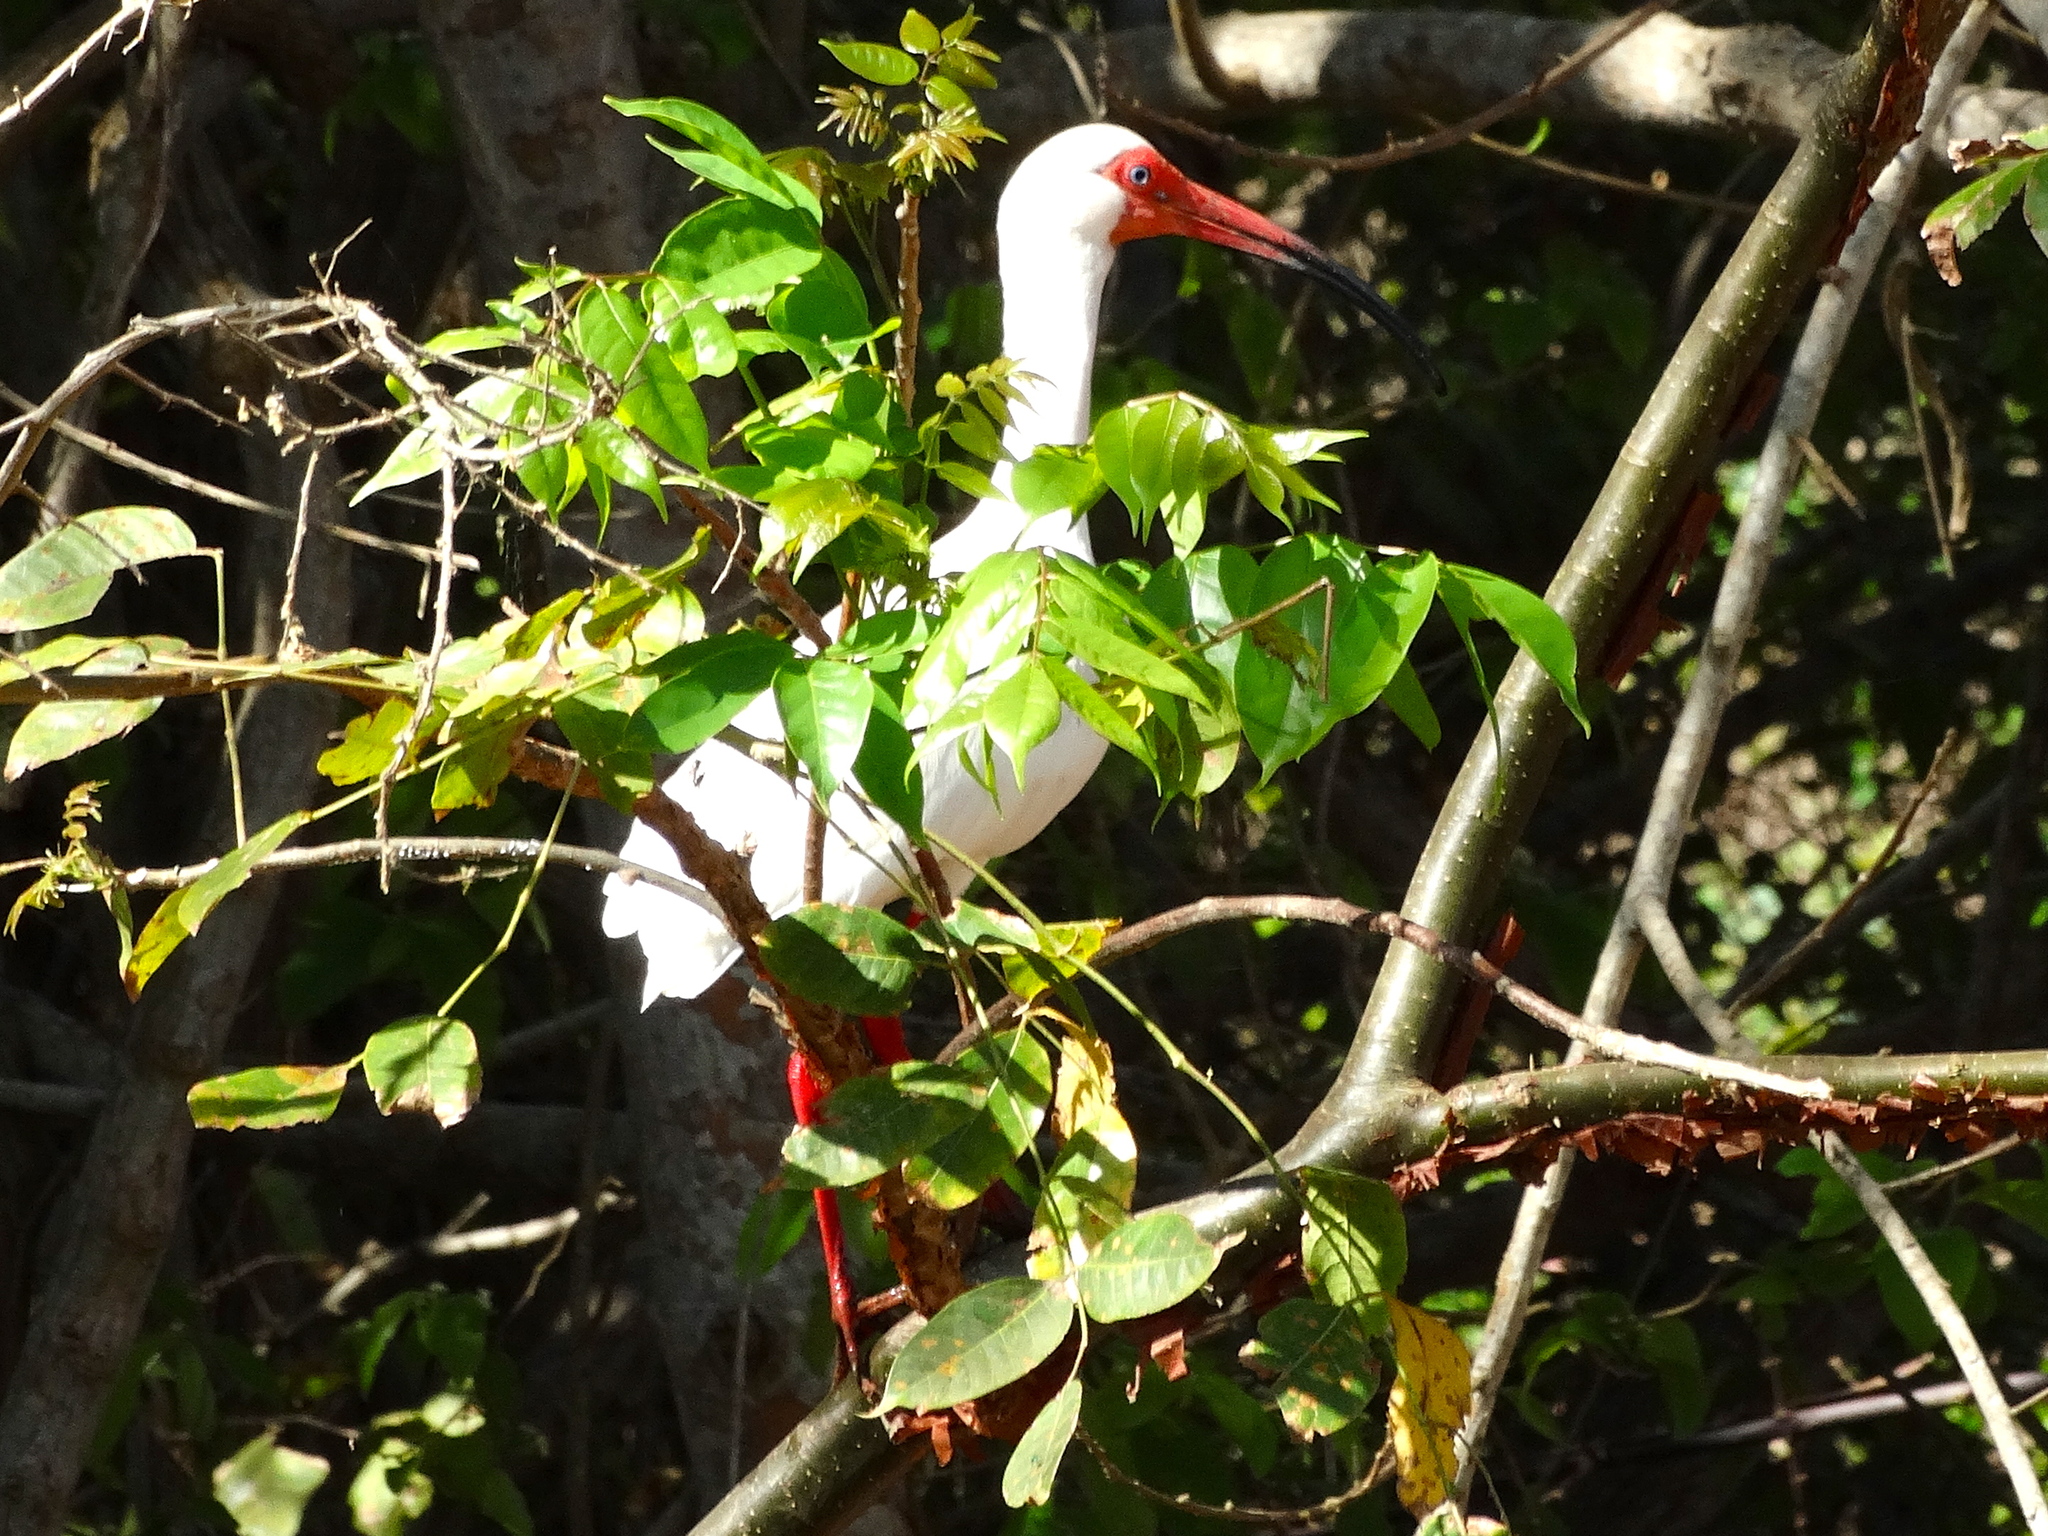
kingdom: Animalia
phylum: Chordata
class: Aves
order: Pelecaniformes
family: Threskiornithidae
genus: Eudocimus
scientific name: Eudocimus albus
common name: White ibis
